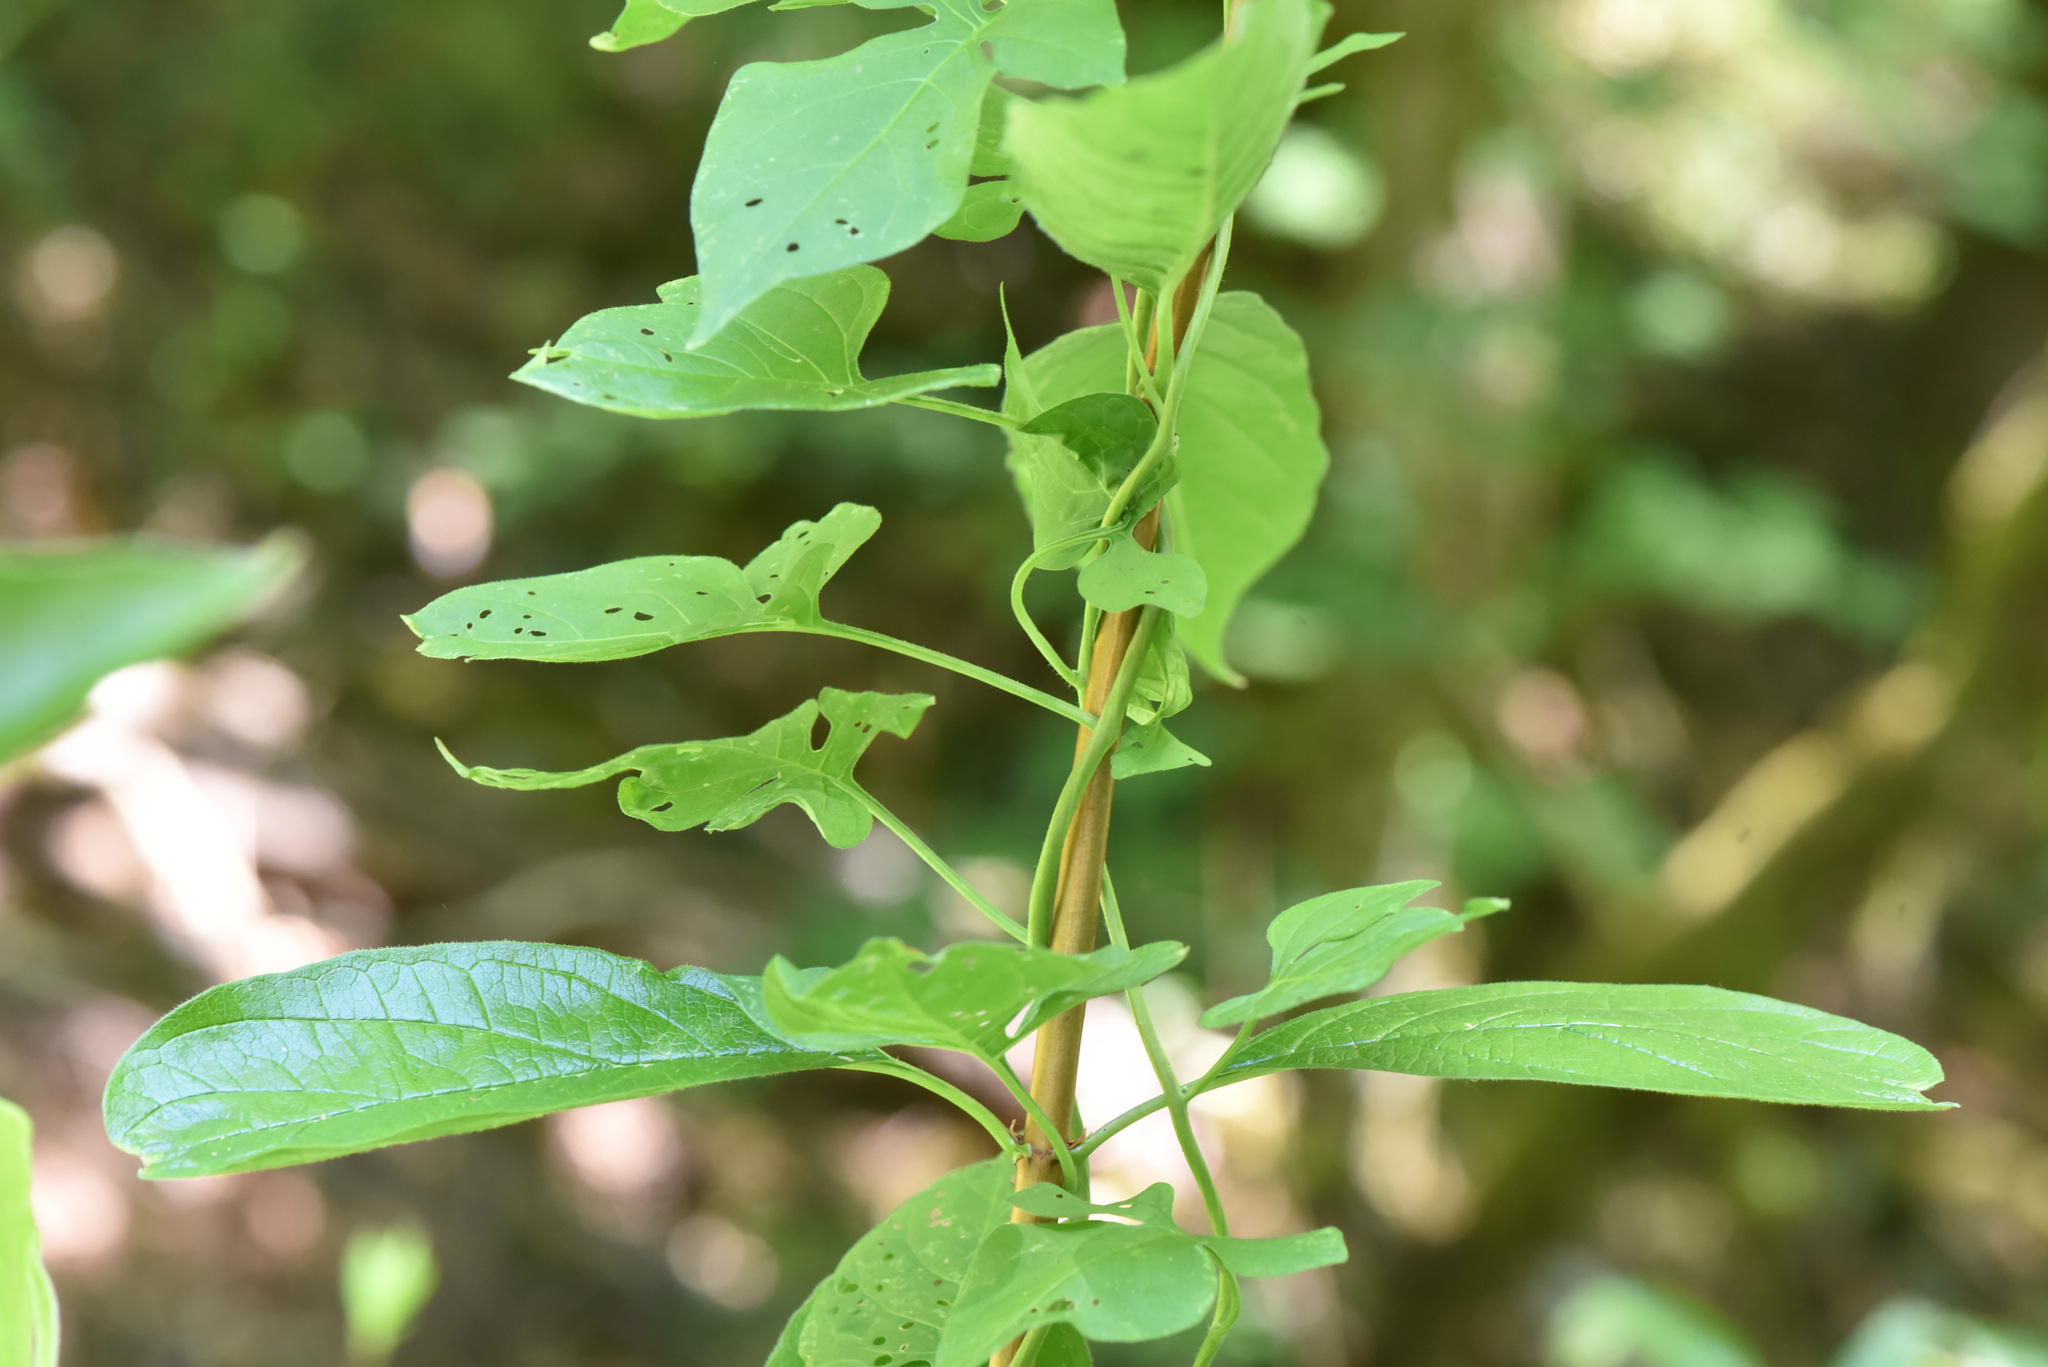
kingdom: Plantae
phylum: Tracheophyta
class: Magnoliopsida
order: Solanales
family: Solanaceae
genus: Solanum
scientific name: Solanum dulcamara
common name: Climbing nightshade
